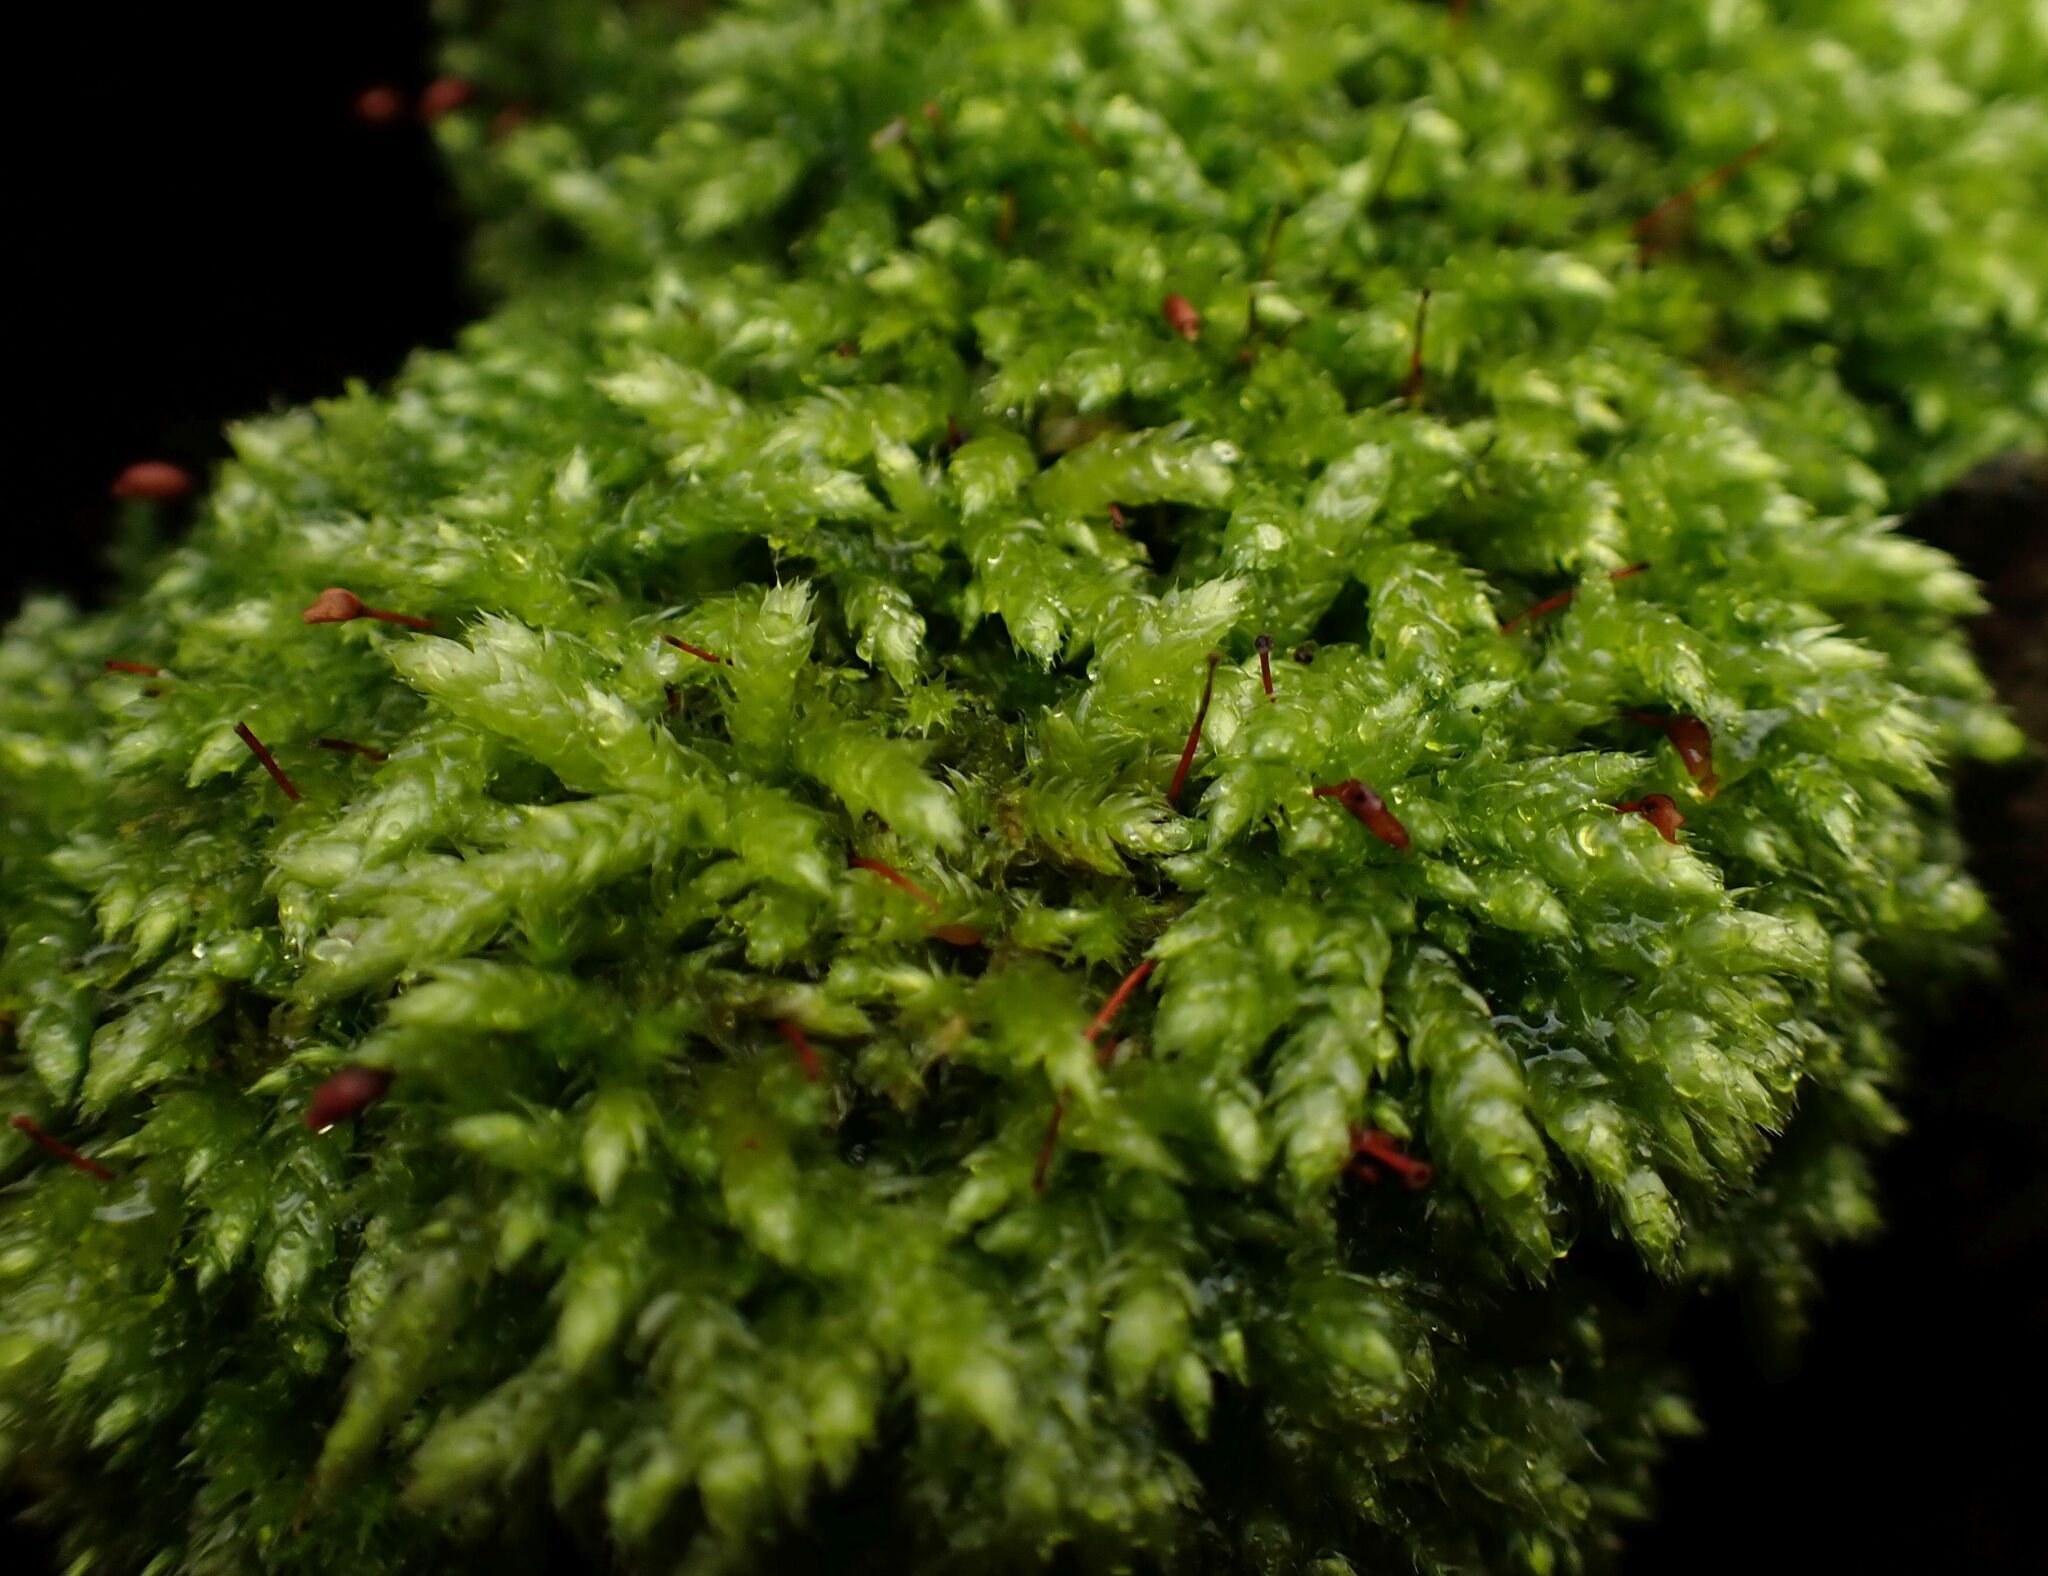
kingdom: Plantae
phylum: Bryophyta
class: Bryopsida
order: Hypnales
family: Brachytheciaceae
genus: Brachythecium
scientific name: Brachythecium rutabulum
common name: Rough-stalked feather-moss
